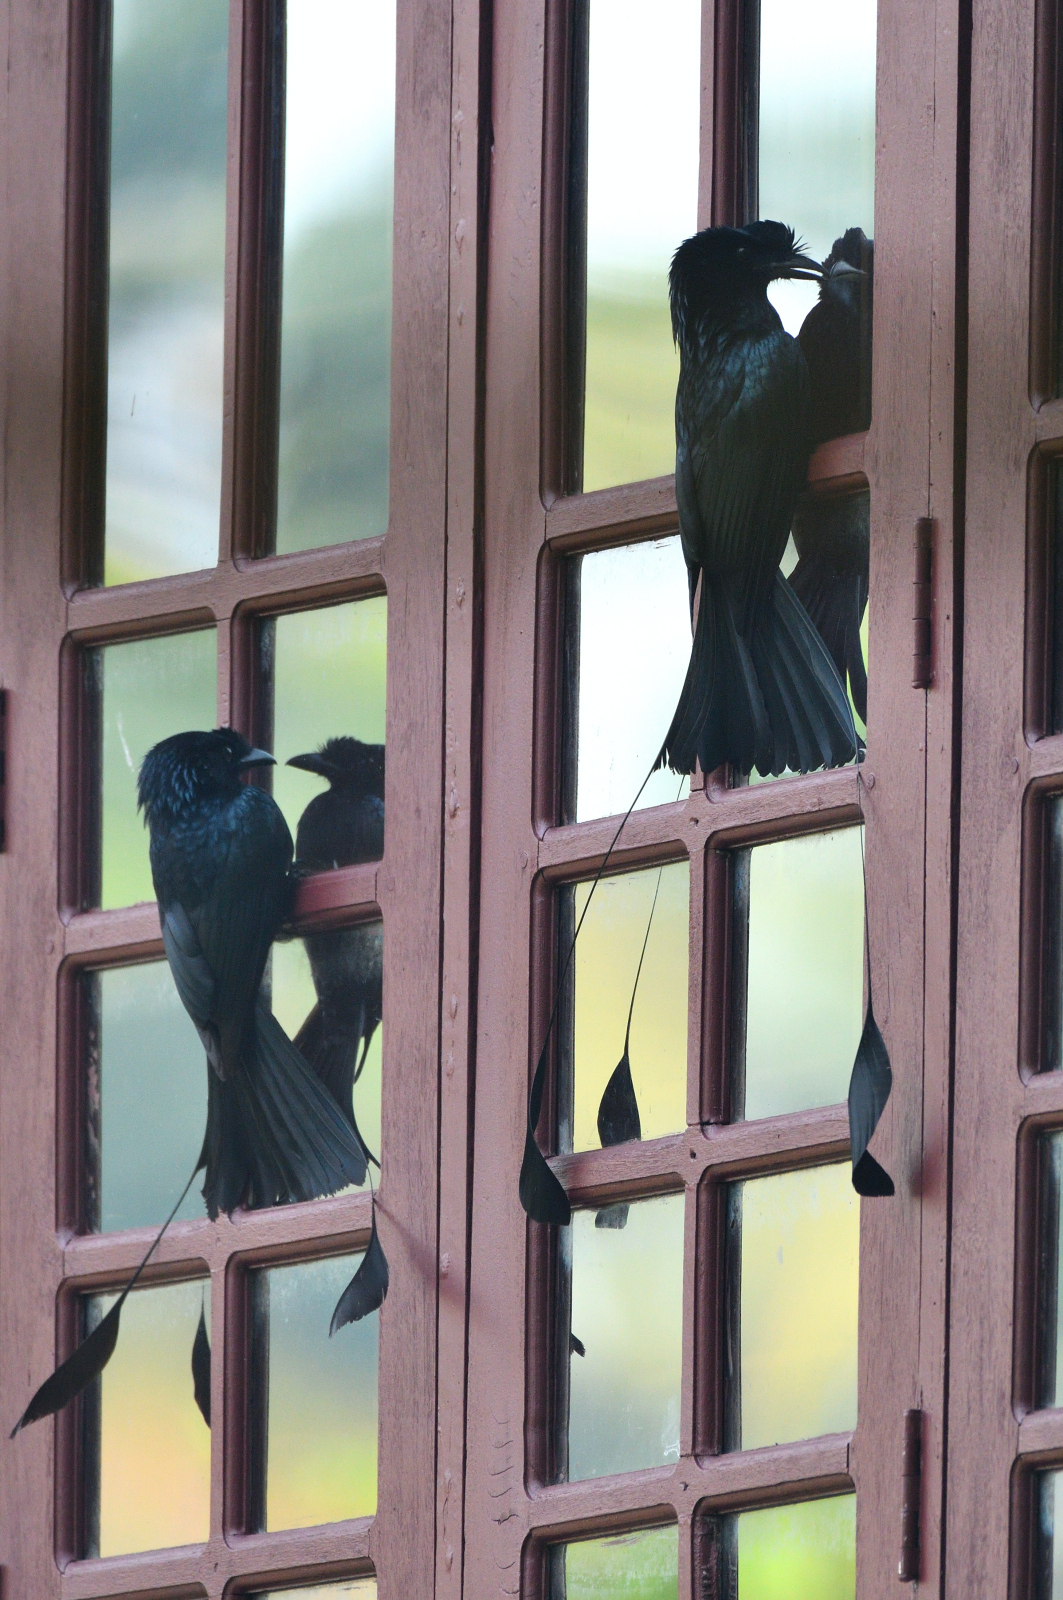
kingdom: Animalia
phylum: Chordata
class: Aves
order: Passeriformes
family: Dicruridae
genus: Dicrurus
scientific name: Dicrurus paradiseus
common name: Greater racket-tailed drongo
